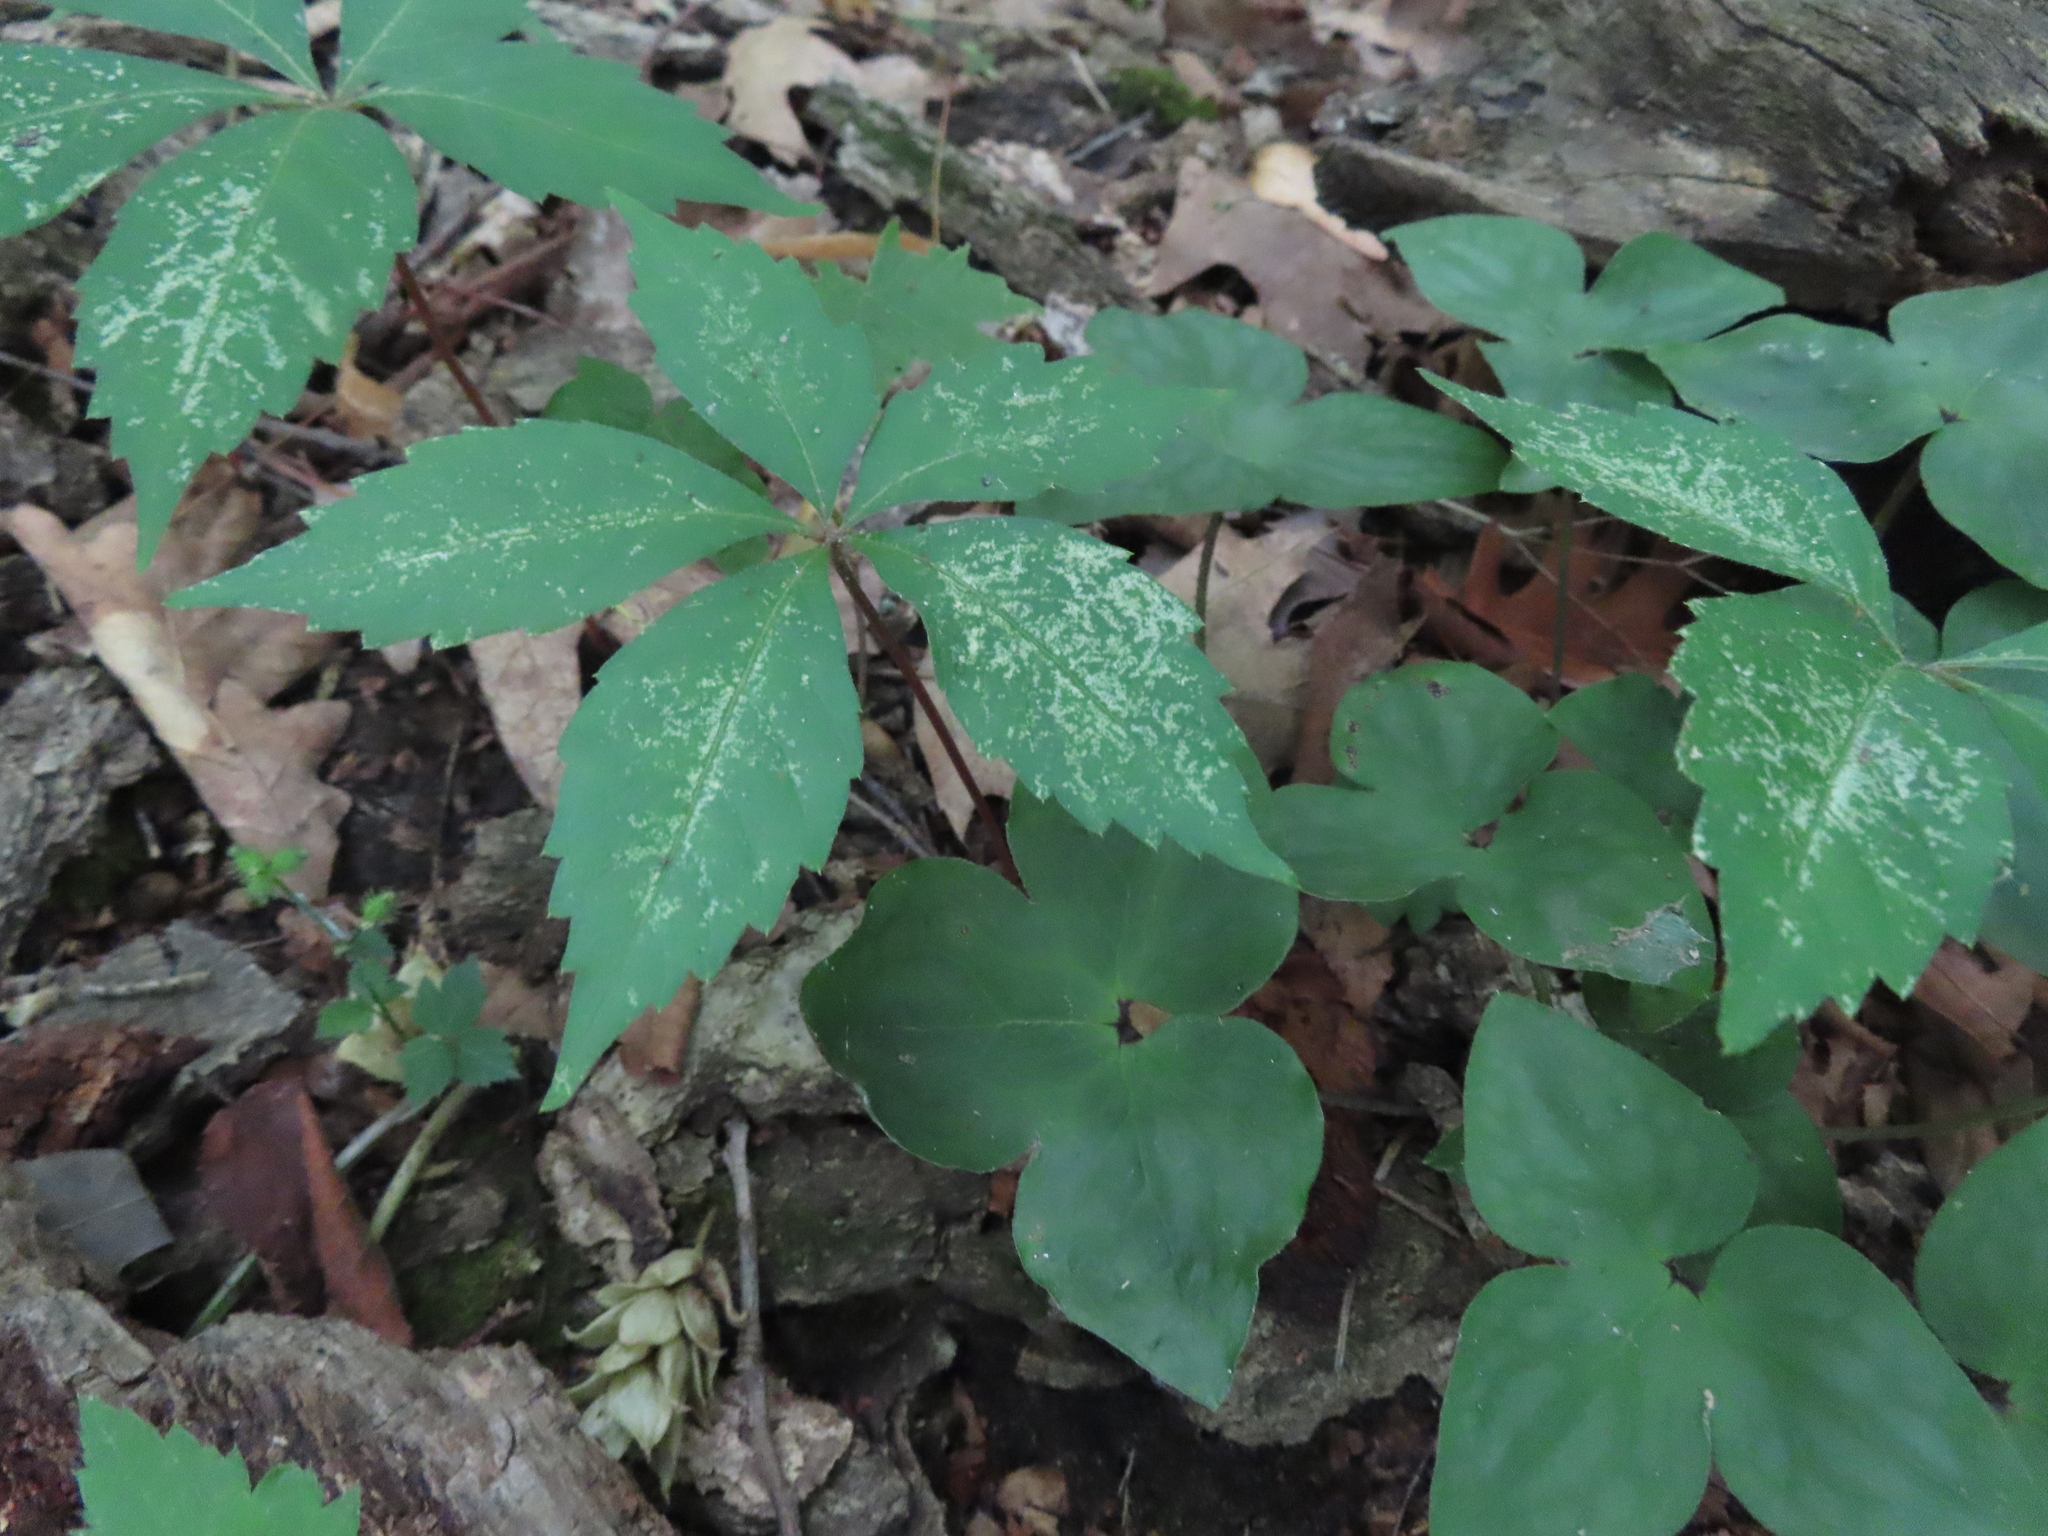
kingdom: Plantae
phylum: Tracheophyta
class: Magnoliopsida
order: Ranunculales
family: Ranunculaceae
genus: Hepatica
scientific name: Hepatica acutiloba
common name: Sharp-lobed hepatica
